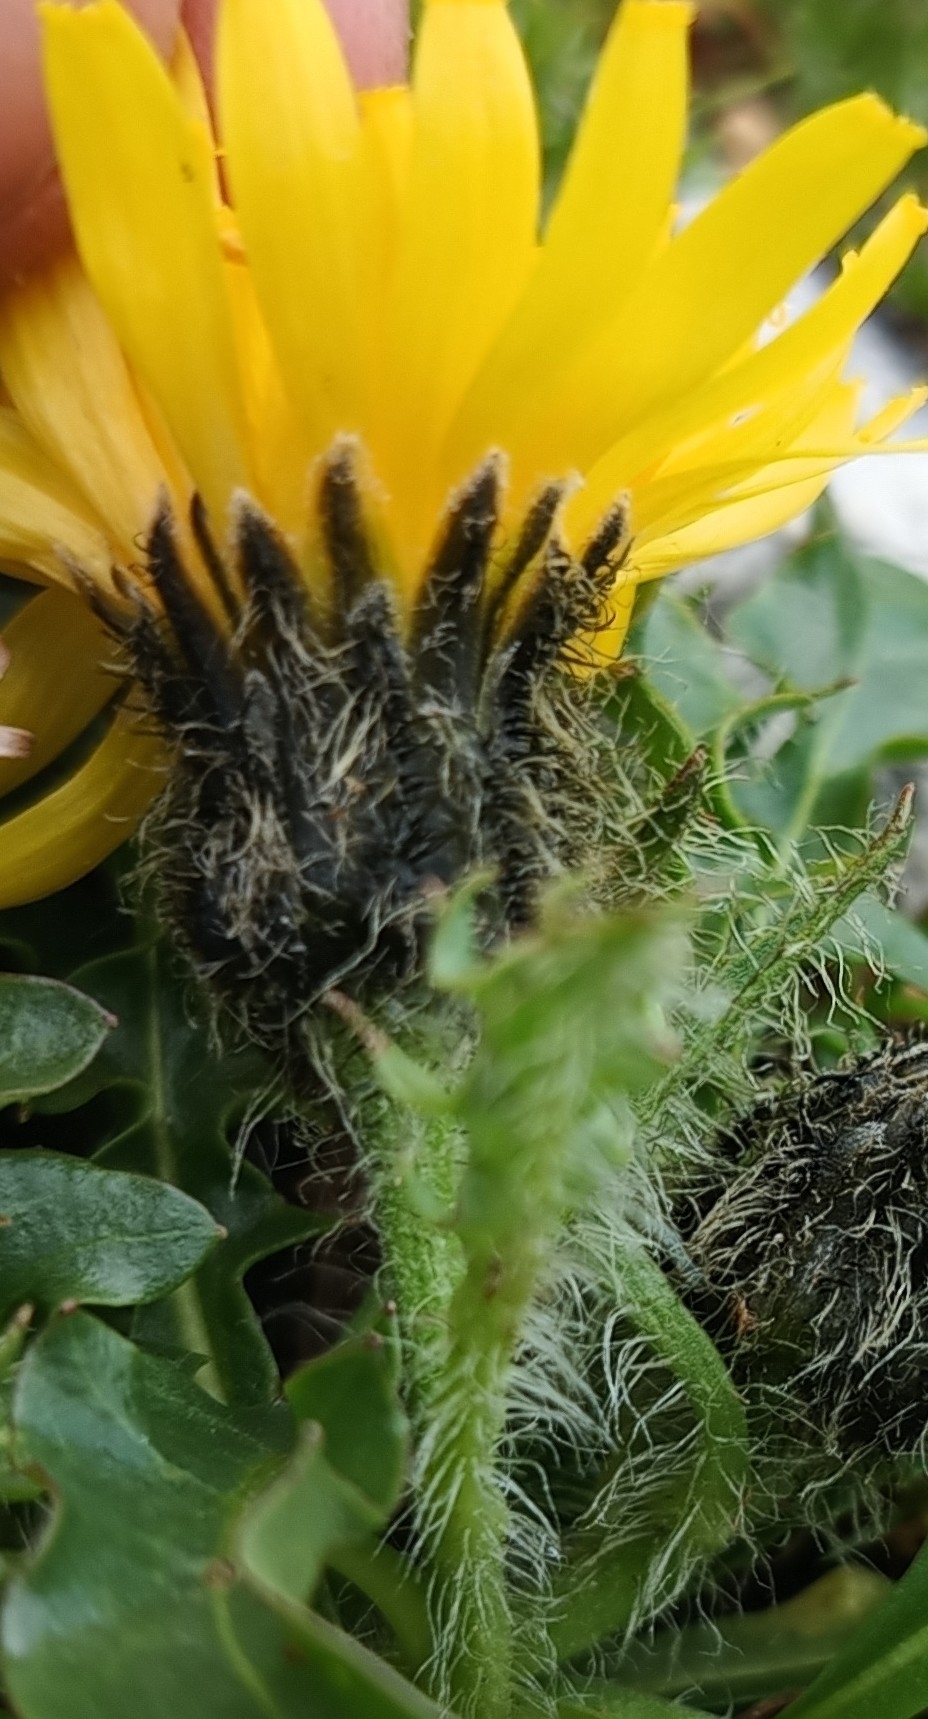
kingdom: Plantae
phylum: Tracheophyta
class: Magnoliopsida
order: Asterales
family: Asteraceae
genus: Crepis
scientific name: Crepis terglouensis
